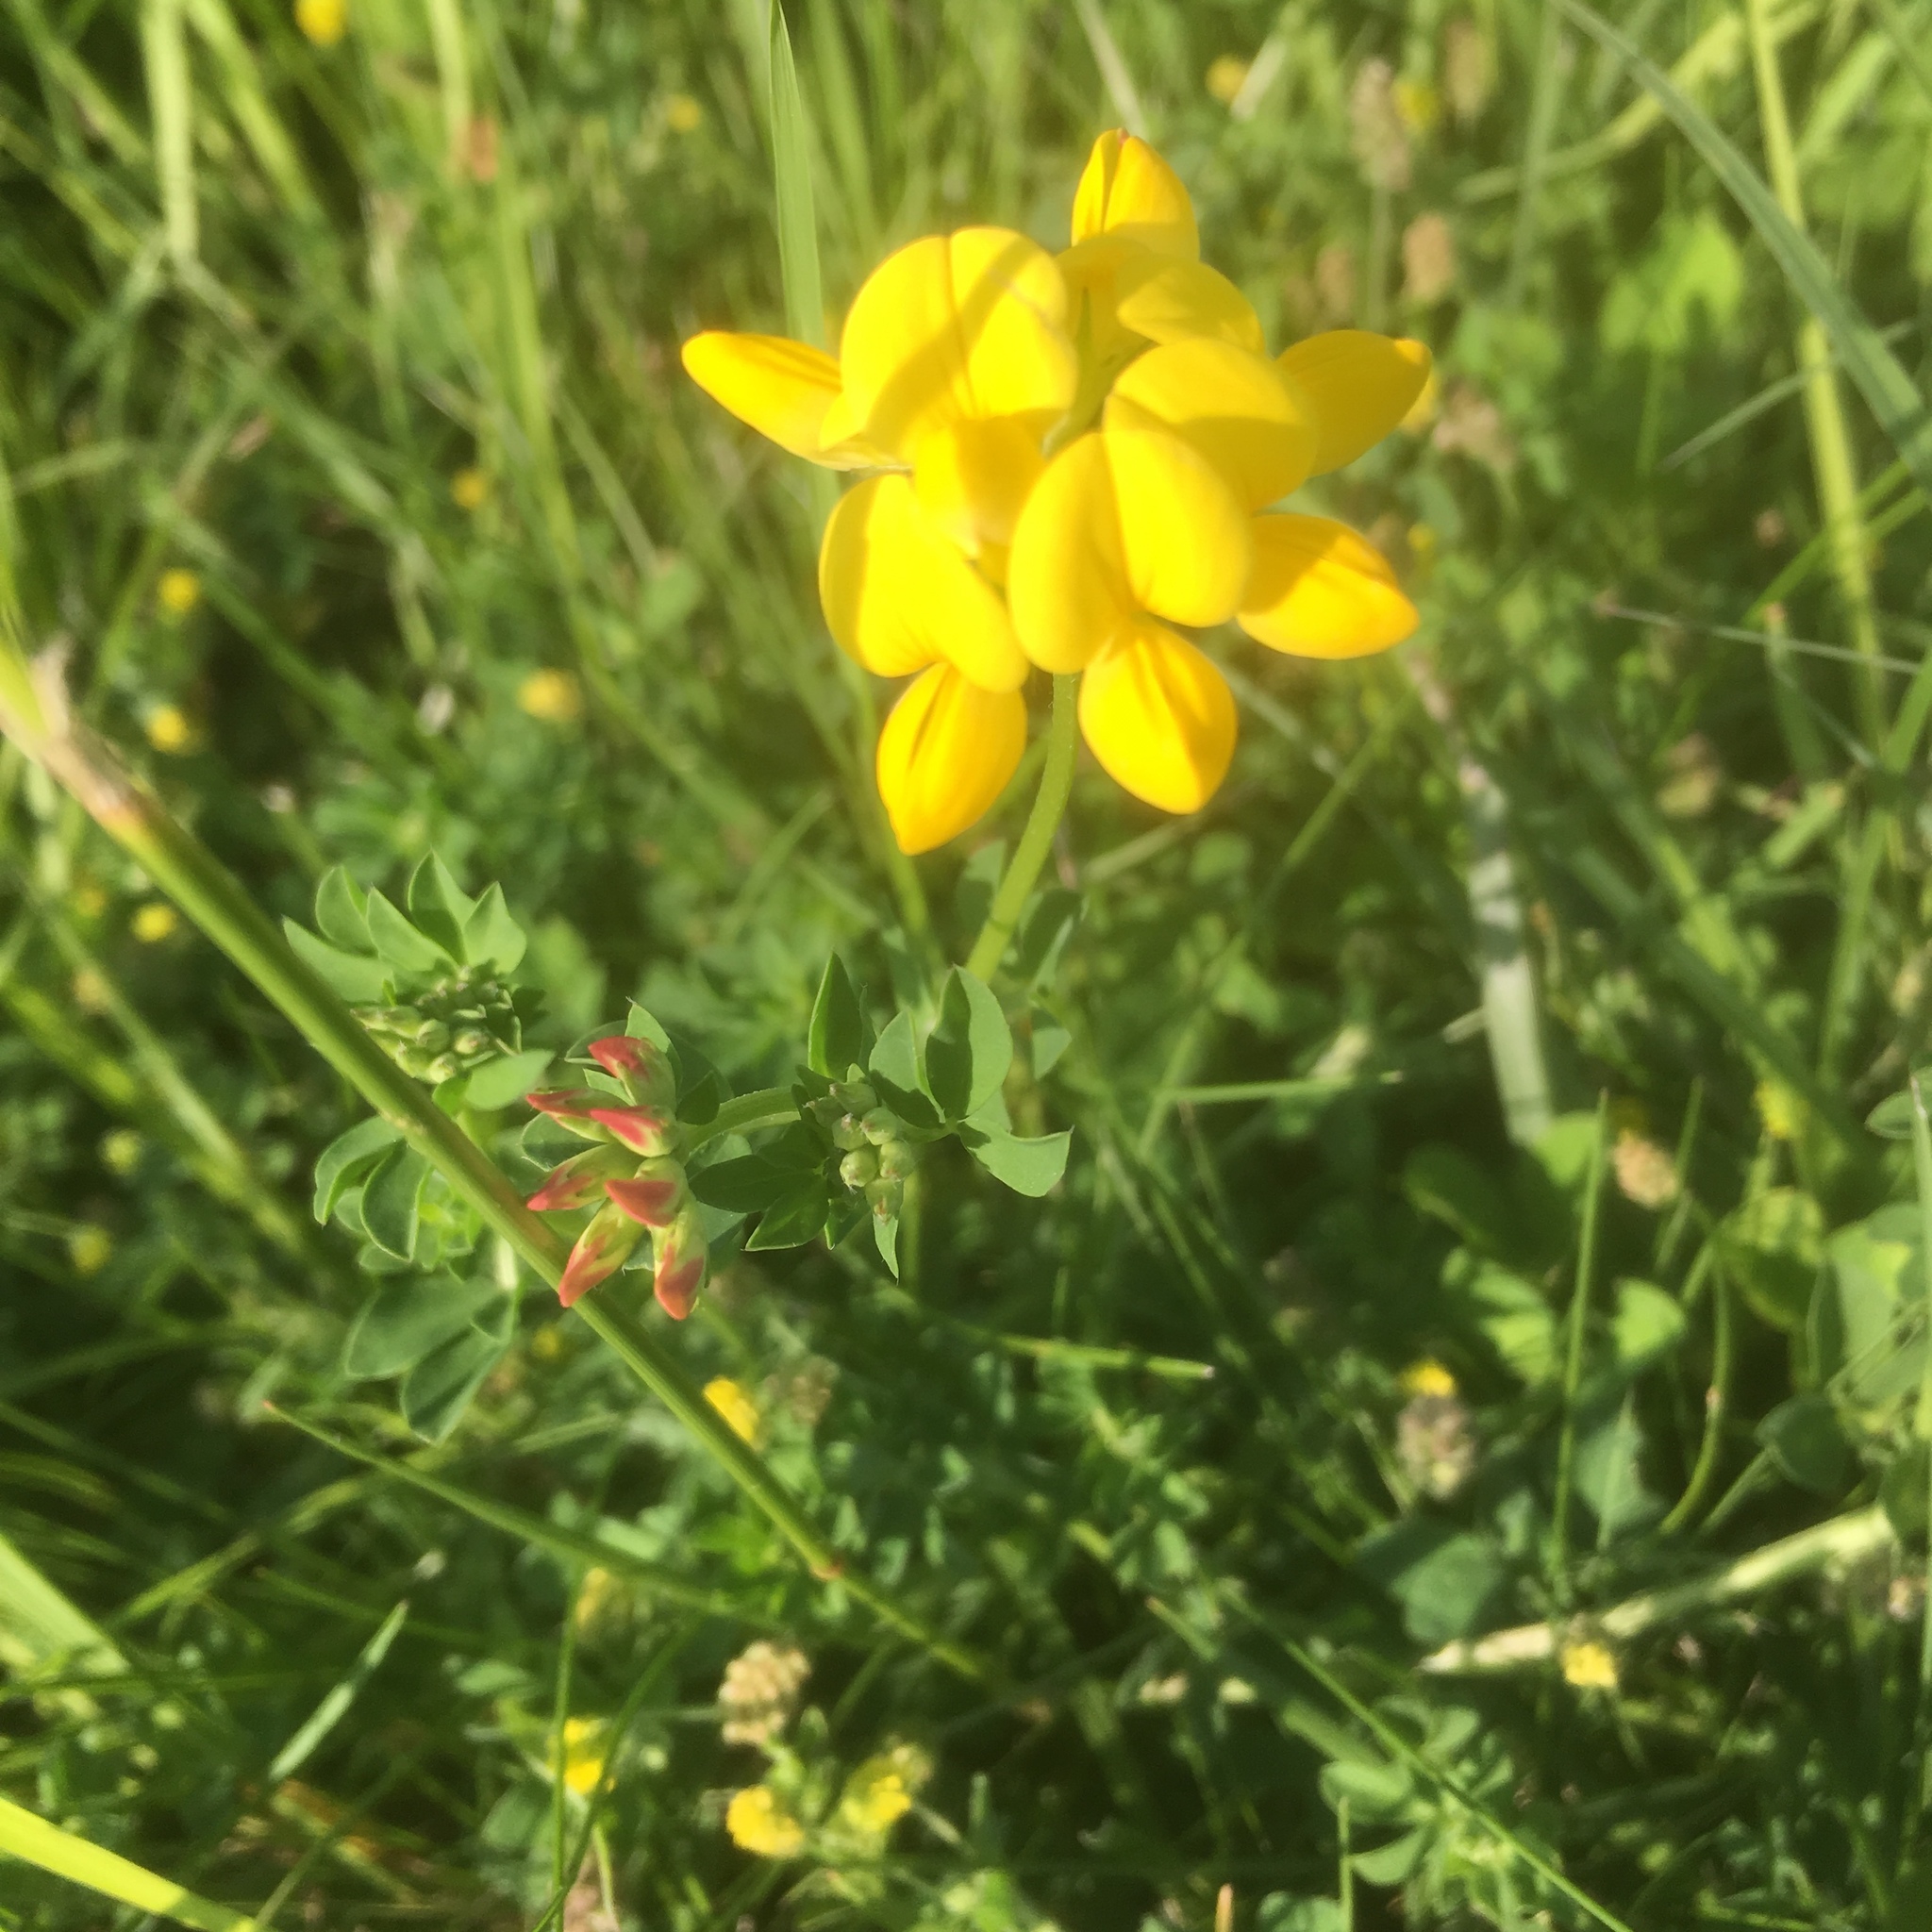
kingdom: Plantae
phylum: Tracheophyta
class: Magnoliopsida
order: Fabales
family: Fabaceae
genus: Lotus
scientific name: Lotus corniculatus
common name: Common bird's-foot-trefoil
